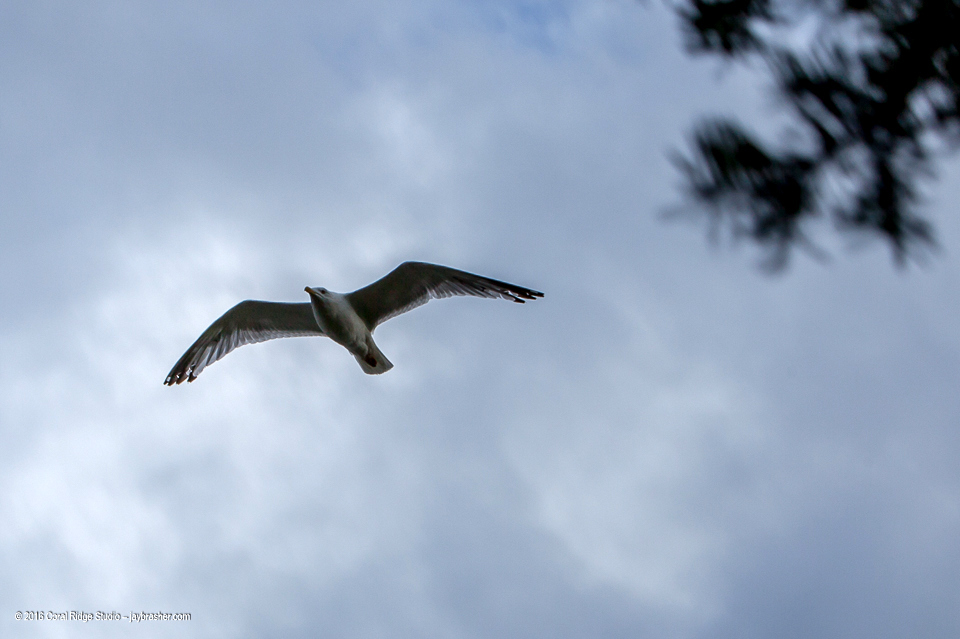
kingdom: Animalia
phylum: Chordata
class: Aves
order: Charadriiformes
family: Laridae
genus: Larus
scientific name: Larus argentatus
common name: Herring gull
